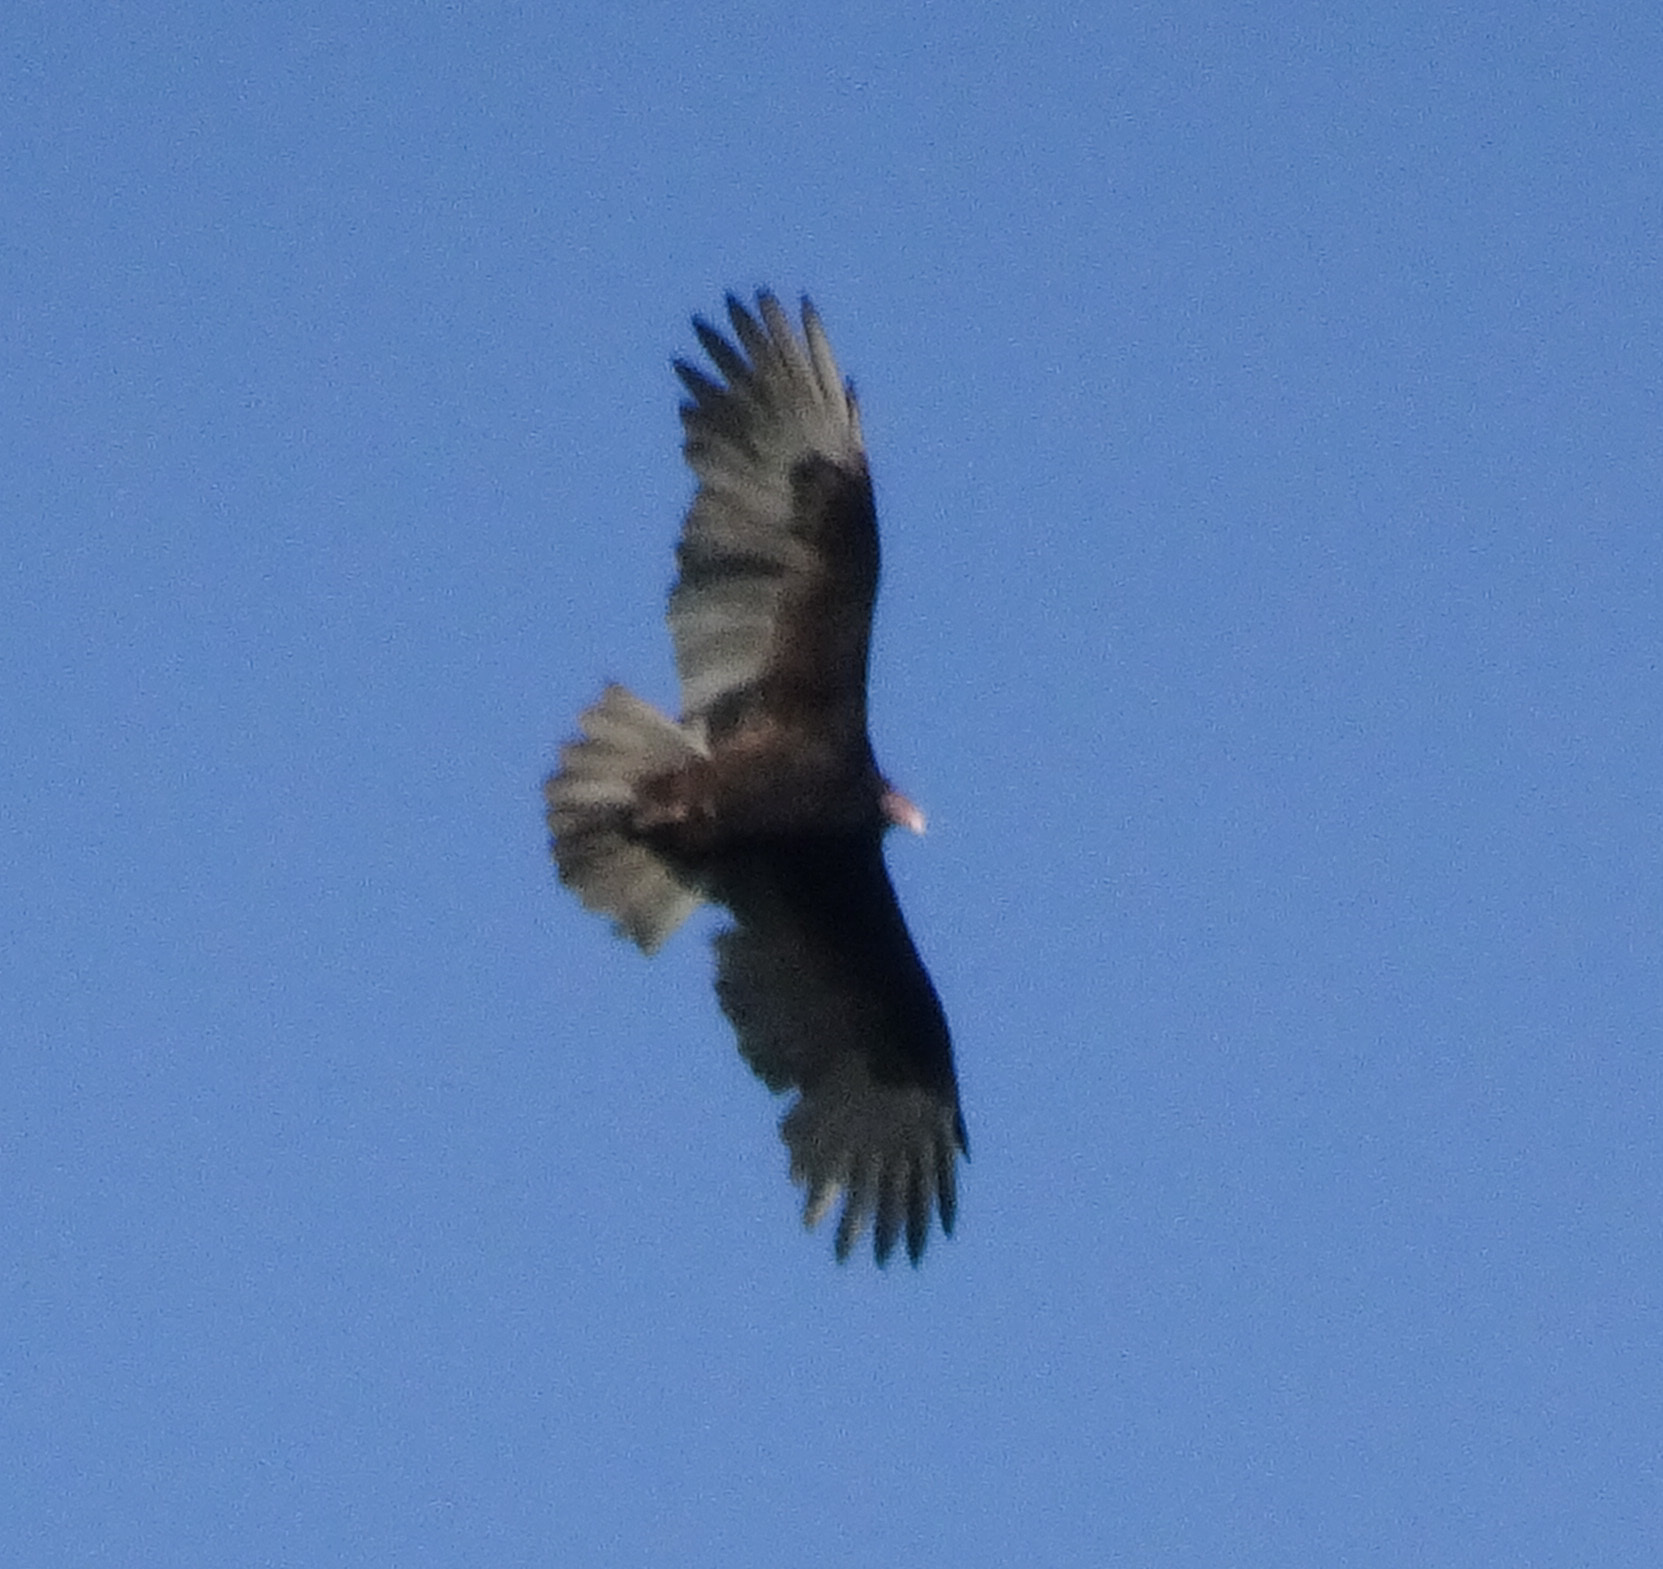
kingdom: Animalia
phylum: Chordata
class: Aves
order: Accipitriformes
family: Cathartidae
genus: Cathartes
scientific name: Cathartes aura
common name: Turkey vulture
